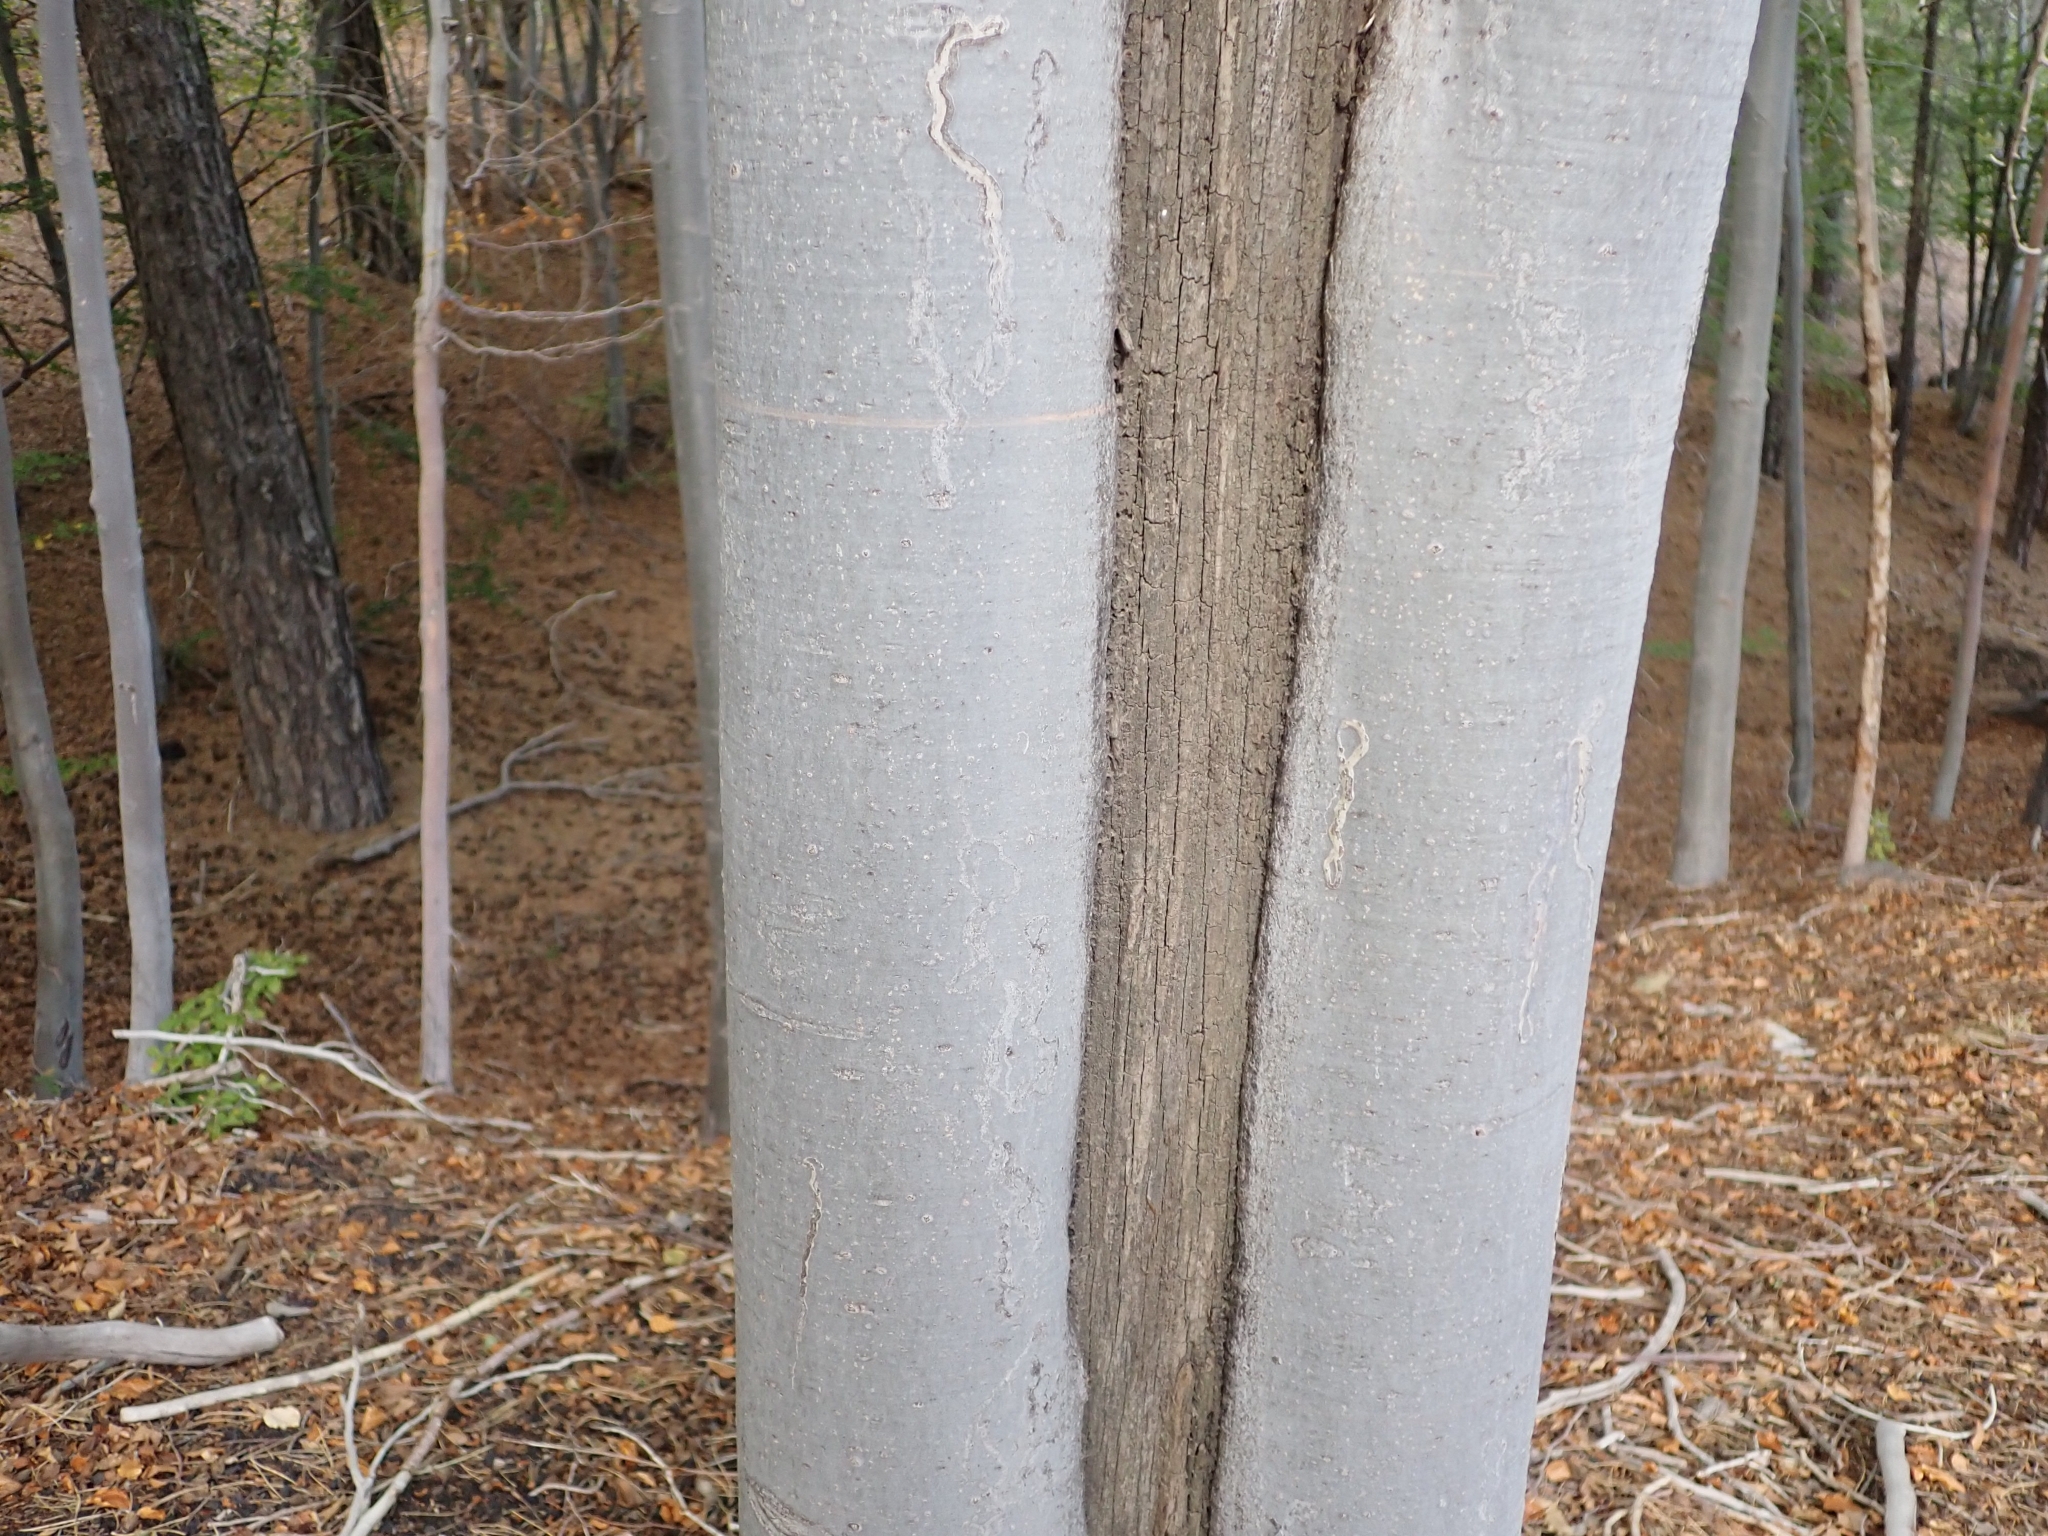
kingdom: Plantae
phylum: Tracheophyta
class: Magnoliopsida
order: Fagales
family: Fagaceae
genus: Fagus
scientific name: Fagus sylvatica
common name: Beech
